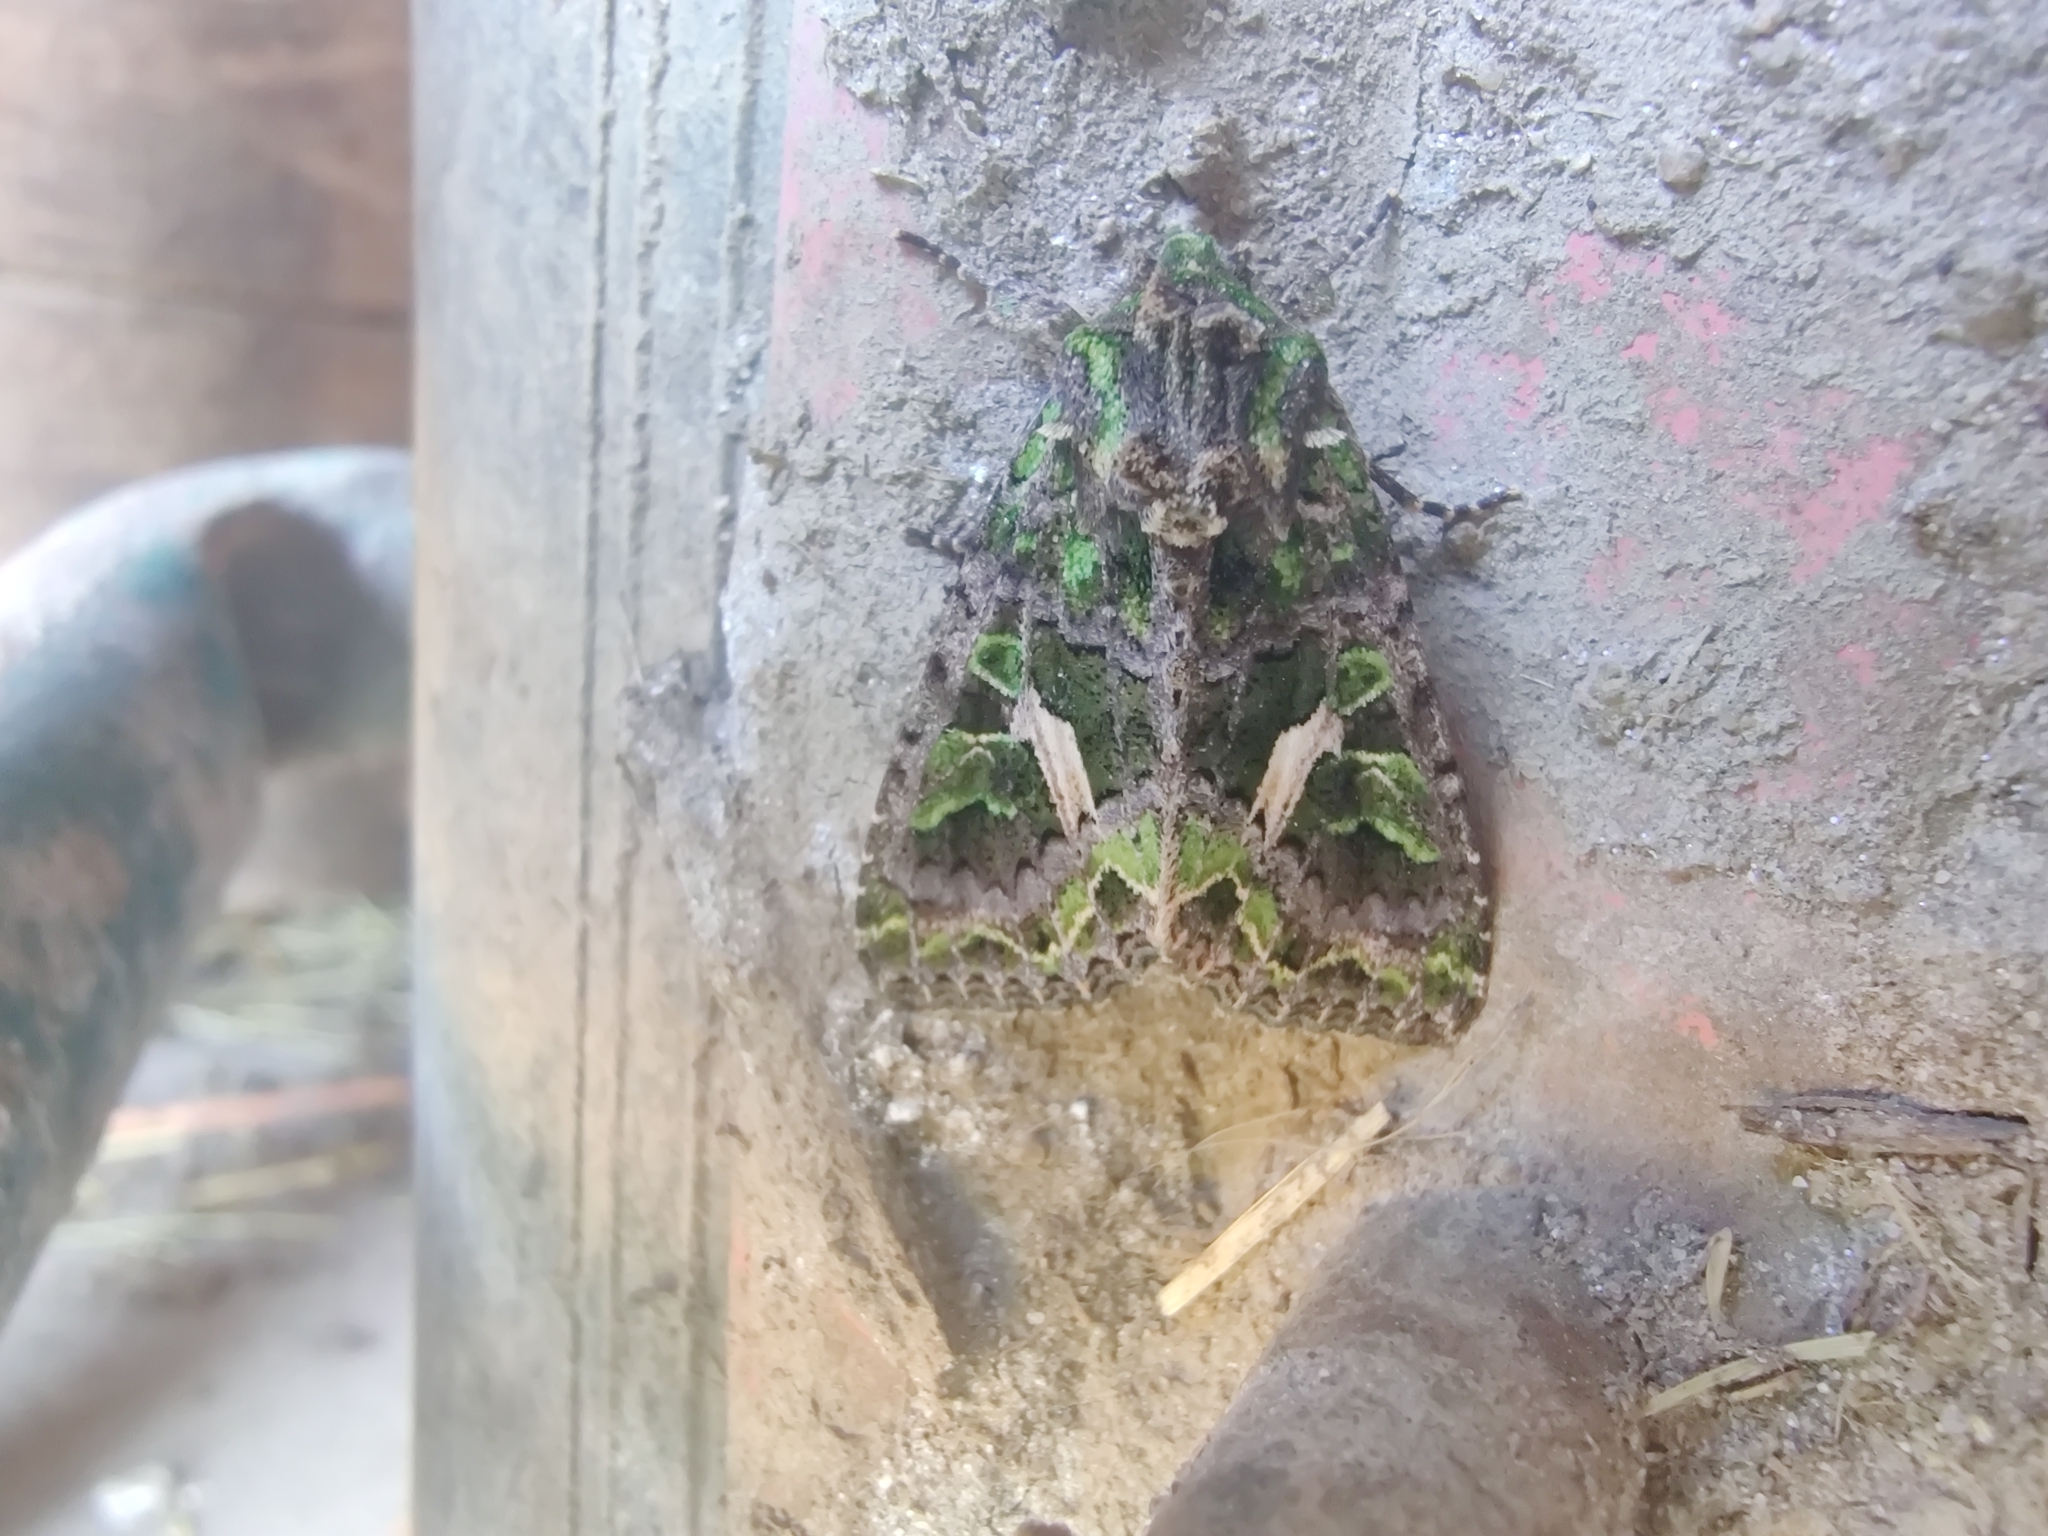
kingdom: Animalia
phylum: Arthropoda
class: Insecta
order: Lepidoptera
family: Noctuidae
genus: Trachea
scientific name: Trachea atriplicis
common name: Orache moth
